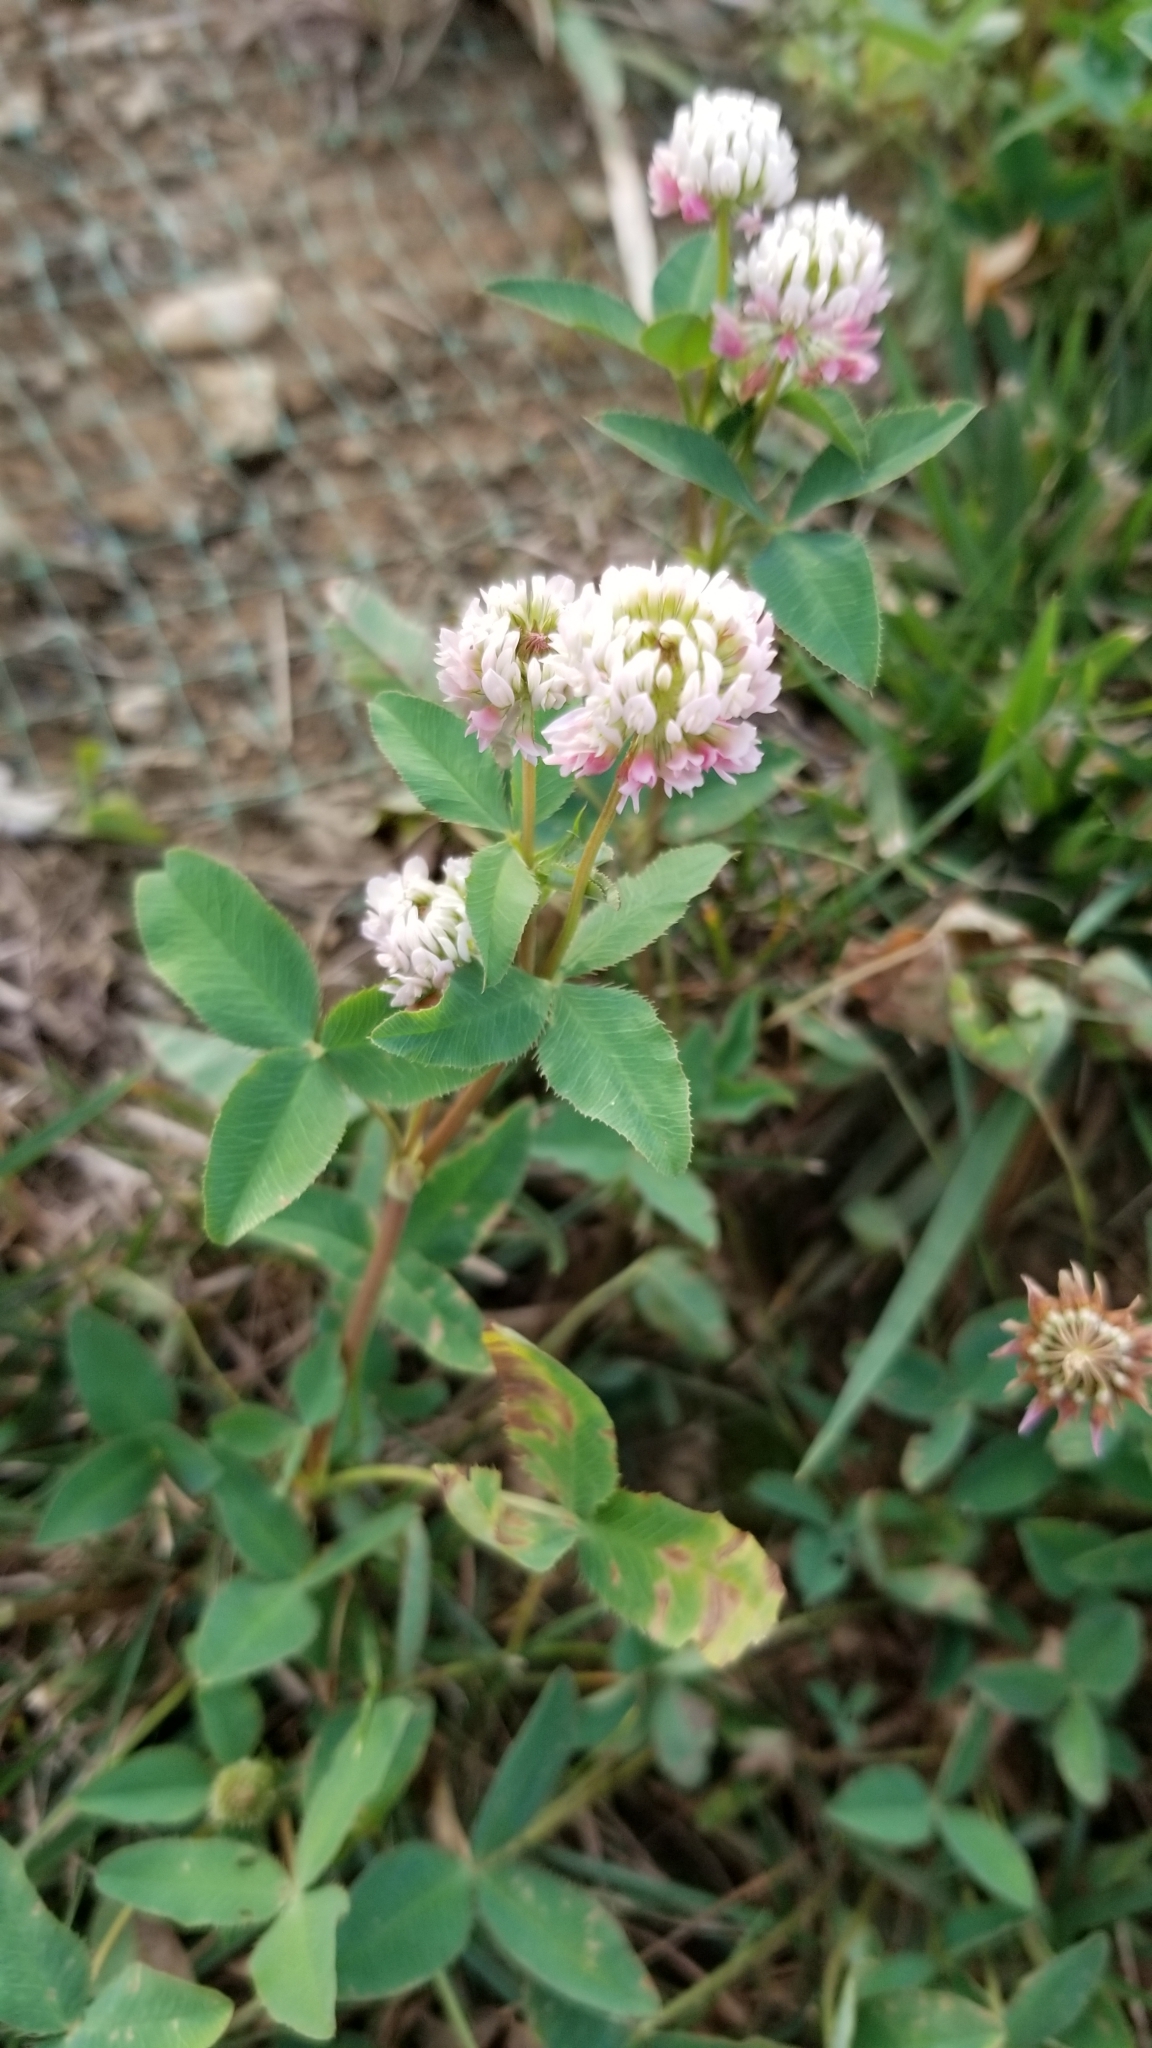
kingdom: Plantae
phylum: Tracheophyta
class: Magnoliopsida
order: Fabales
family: Fabaceae
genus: Trifolium
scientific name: Trifolium hybridum
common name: Alsike clover
